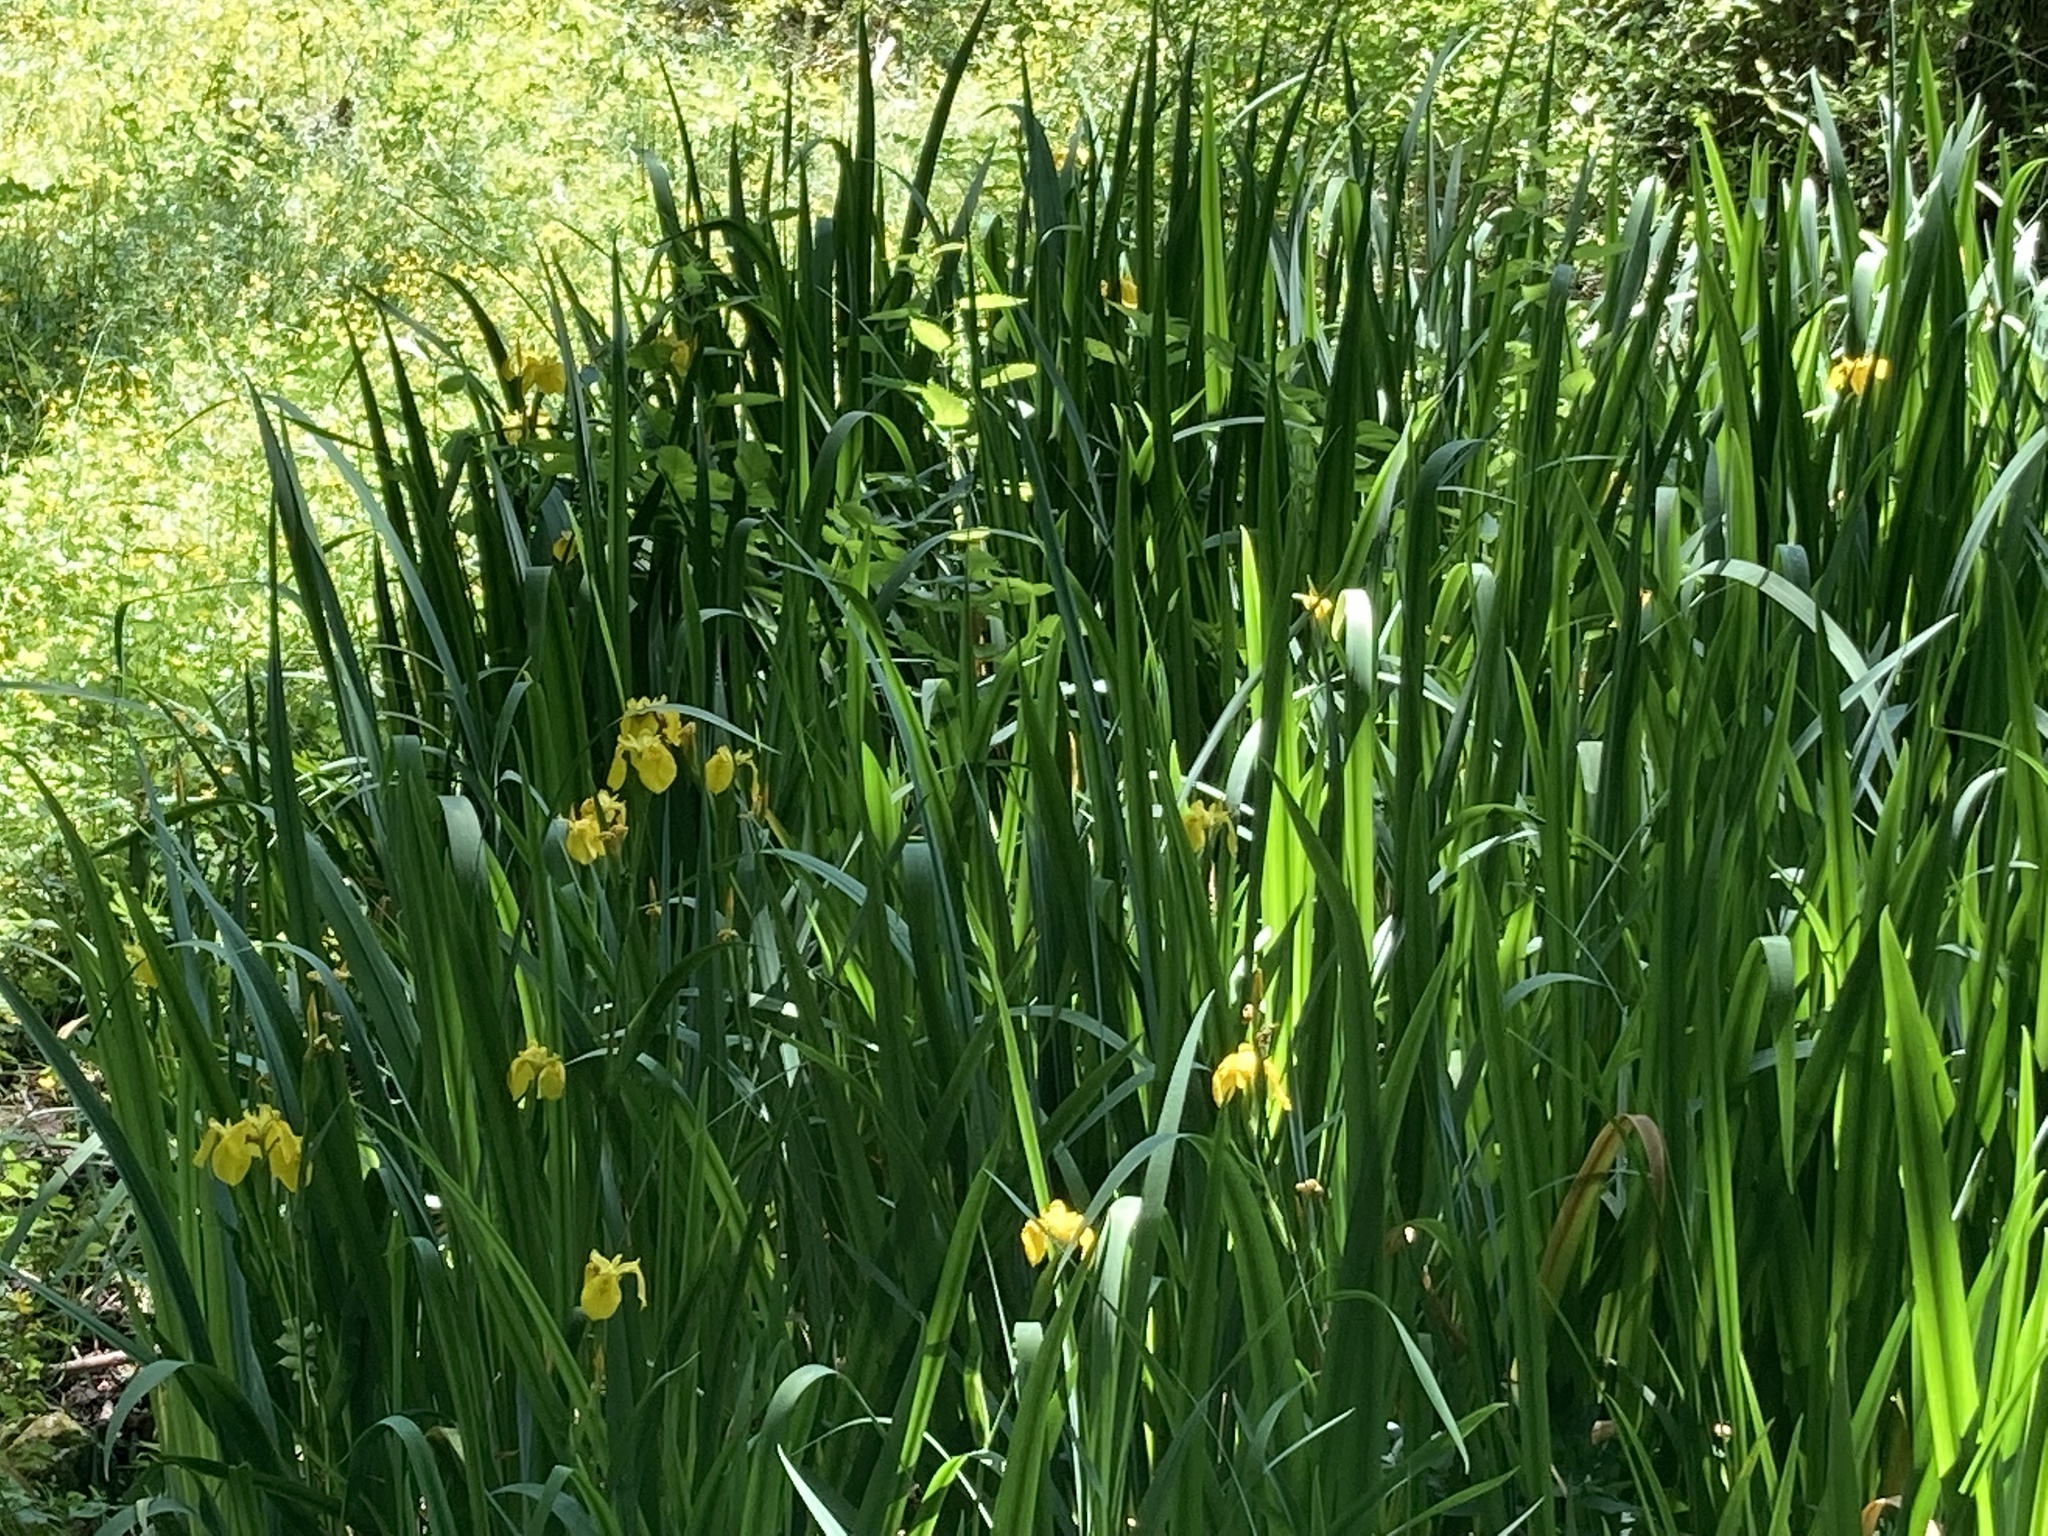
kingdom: Plantae
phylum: Tracheophyta
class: Liliopsida
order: Asparagales
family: Iridaceae
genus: Iris
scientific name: Iris pseudacorus
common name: Yellow flag
